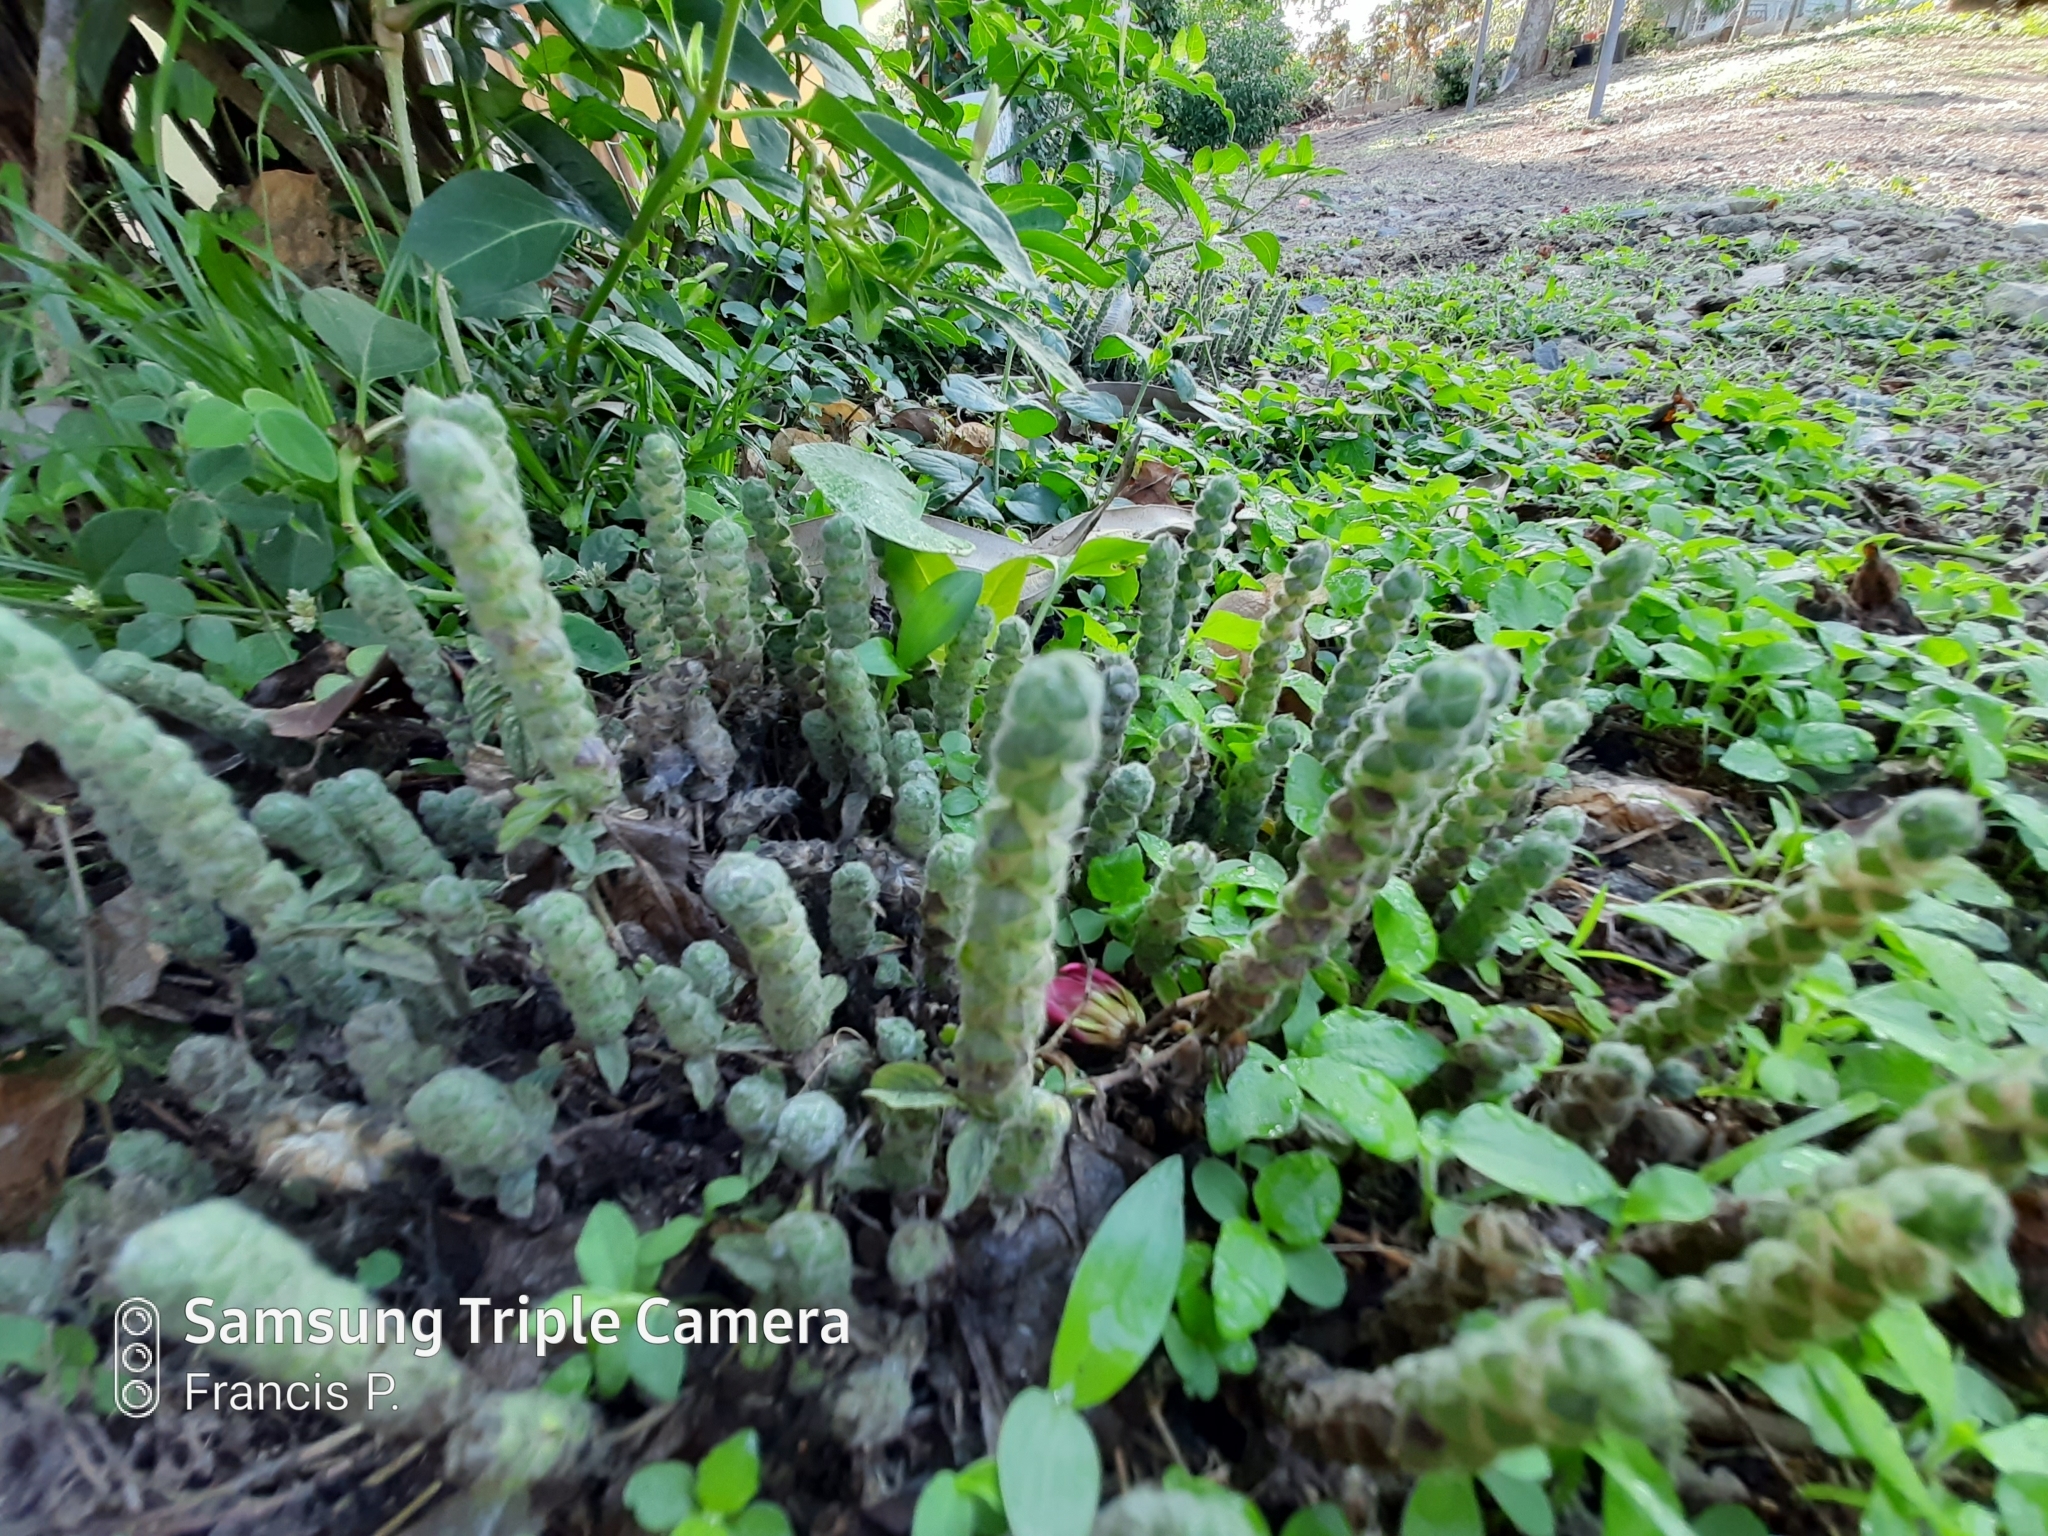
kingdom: Plantae
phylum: Tracheophyta
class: Magnoliopsida
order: Lamiales
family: Acanthaceae
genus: Nelsonia
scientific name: Nelsonia canescens
